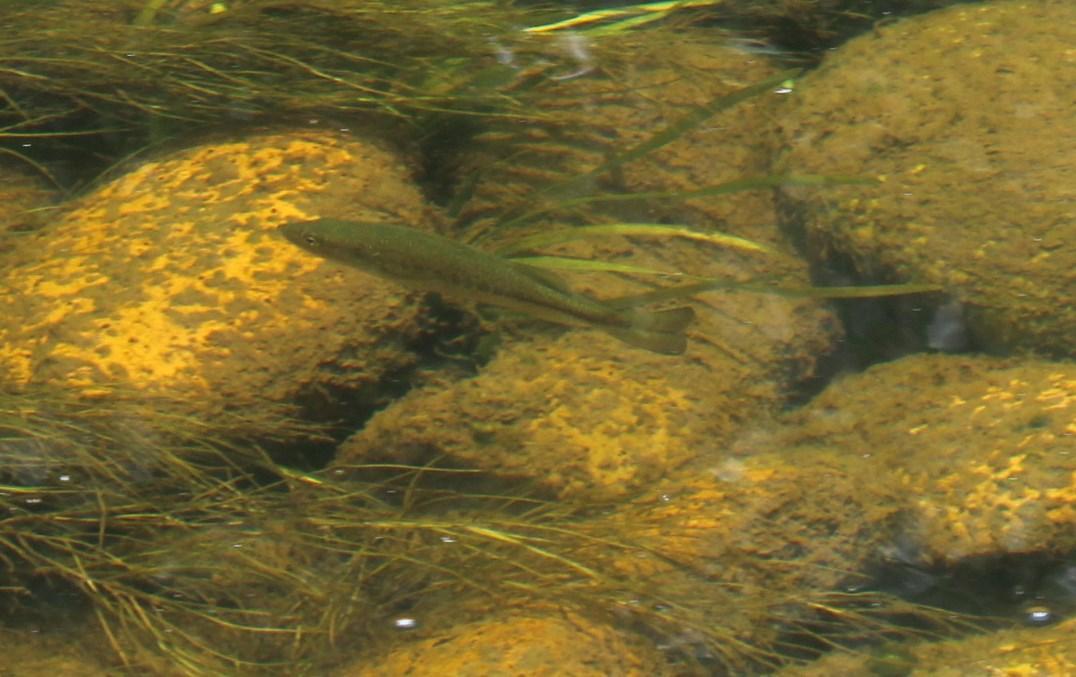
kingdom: Animalia
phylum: Chordata
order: Perciformes
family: Centrarchidae
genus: Micropterus
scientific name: Micropterus
